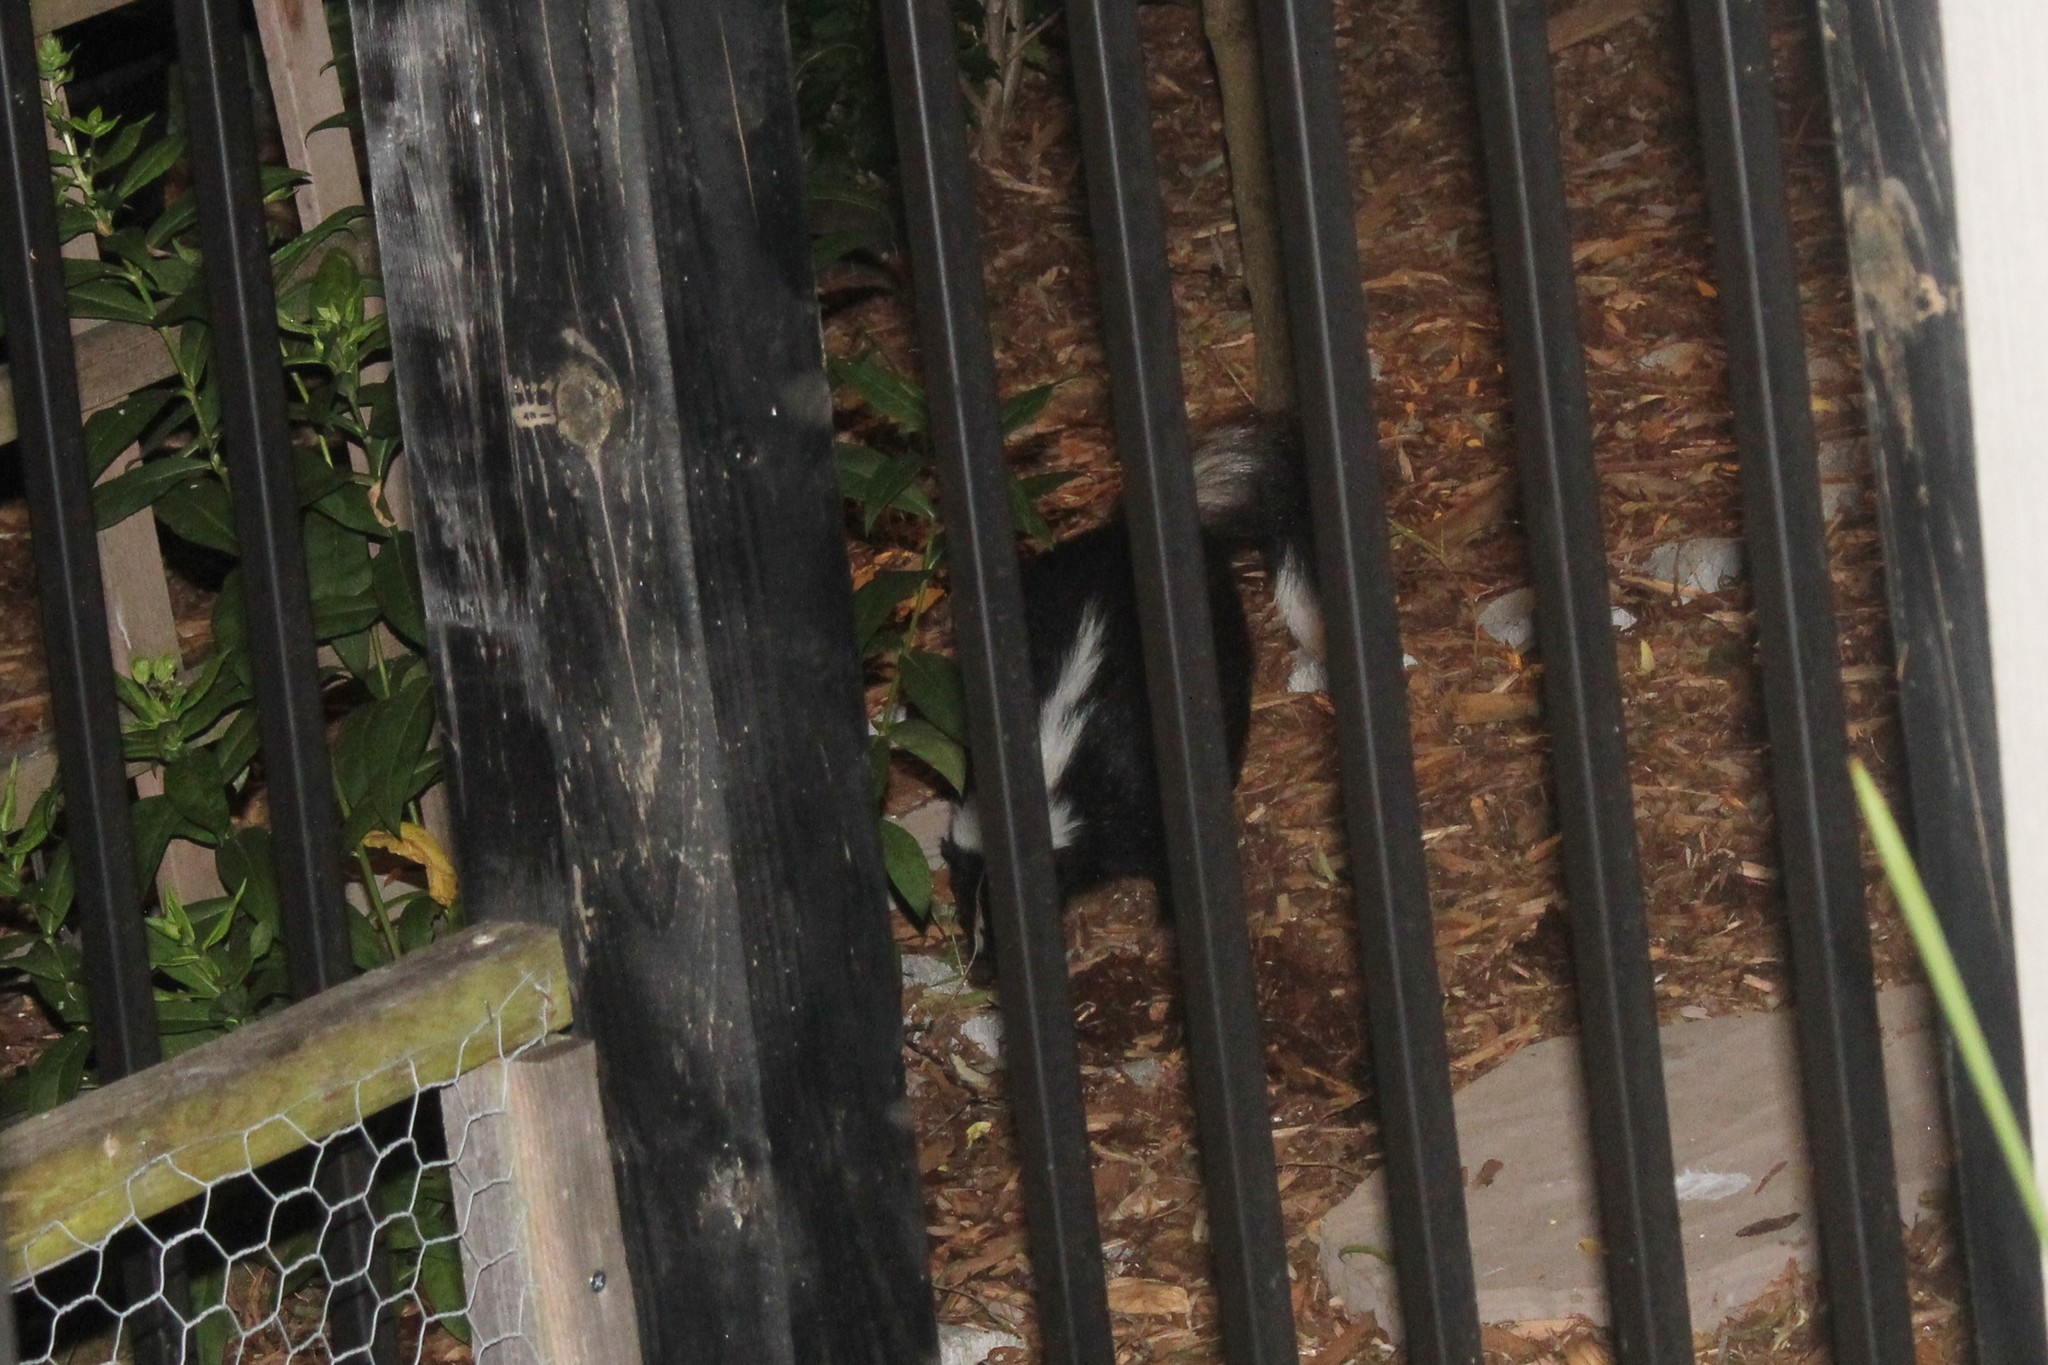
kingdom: Animalia
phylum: Chordata
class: Mammalia
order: Carnivora
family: Mephitidae
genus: Mephitis
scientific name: Mephitis mephitis
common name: Striped skunk
